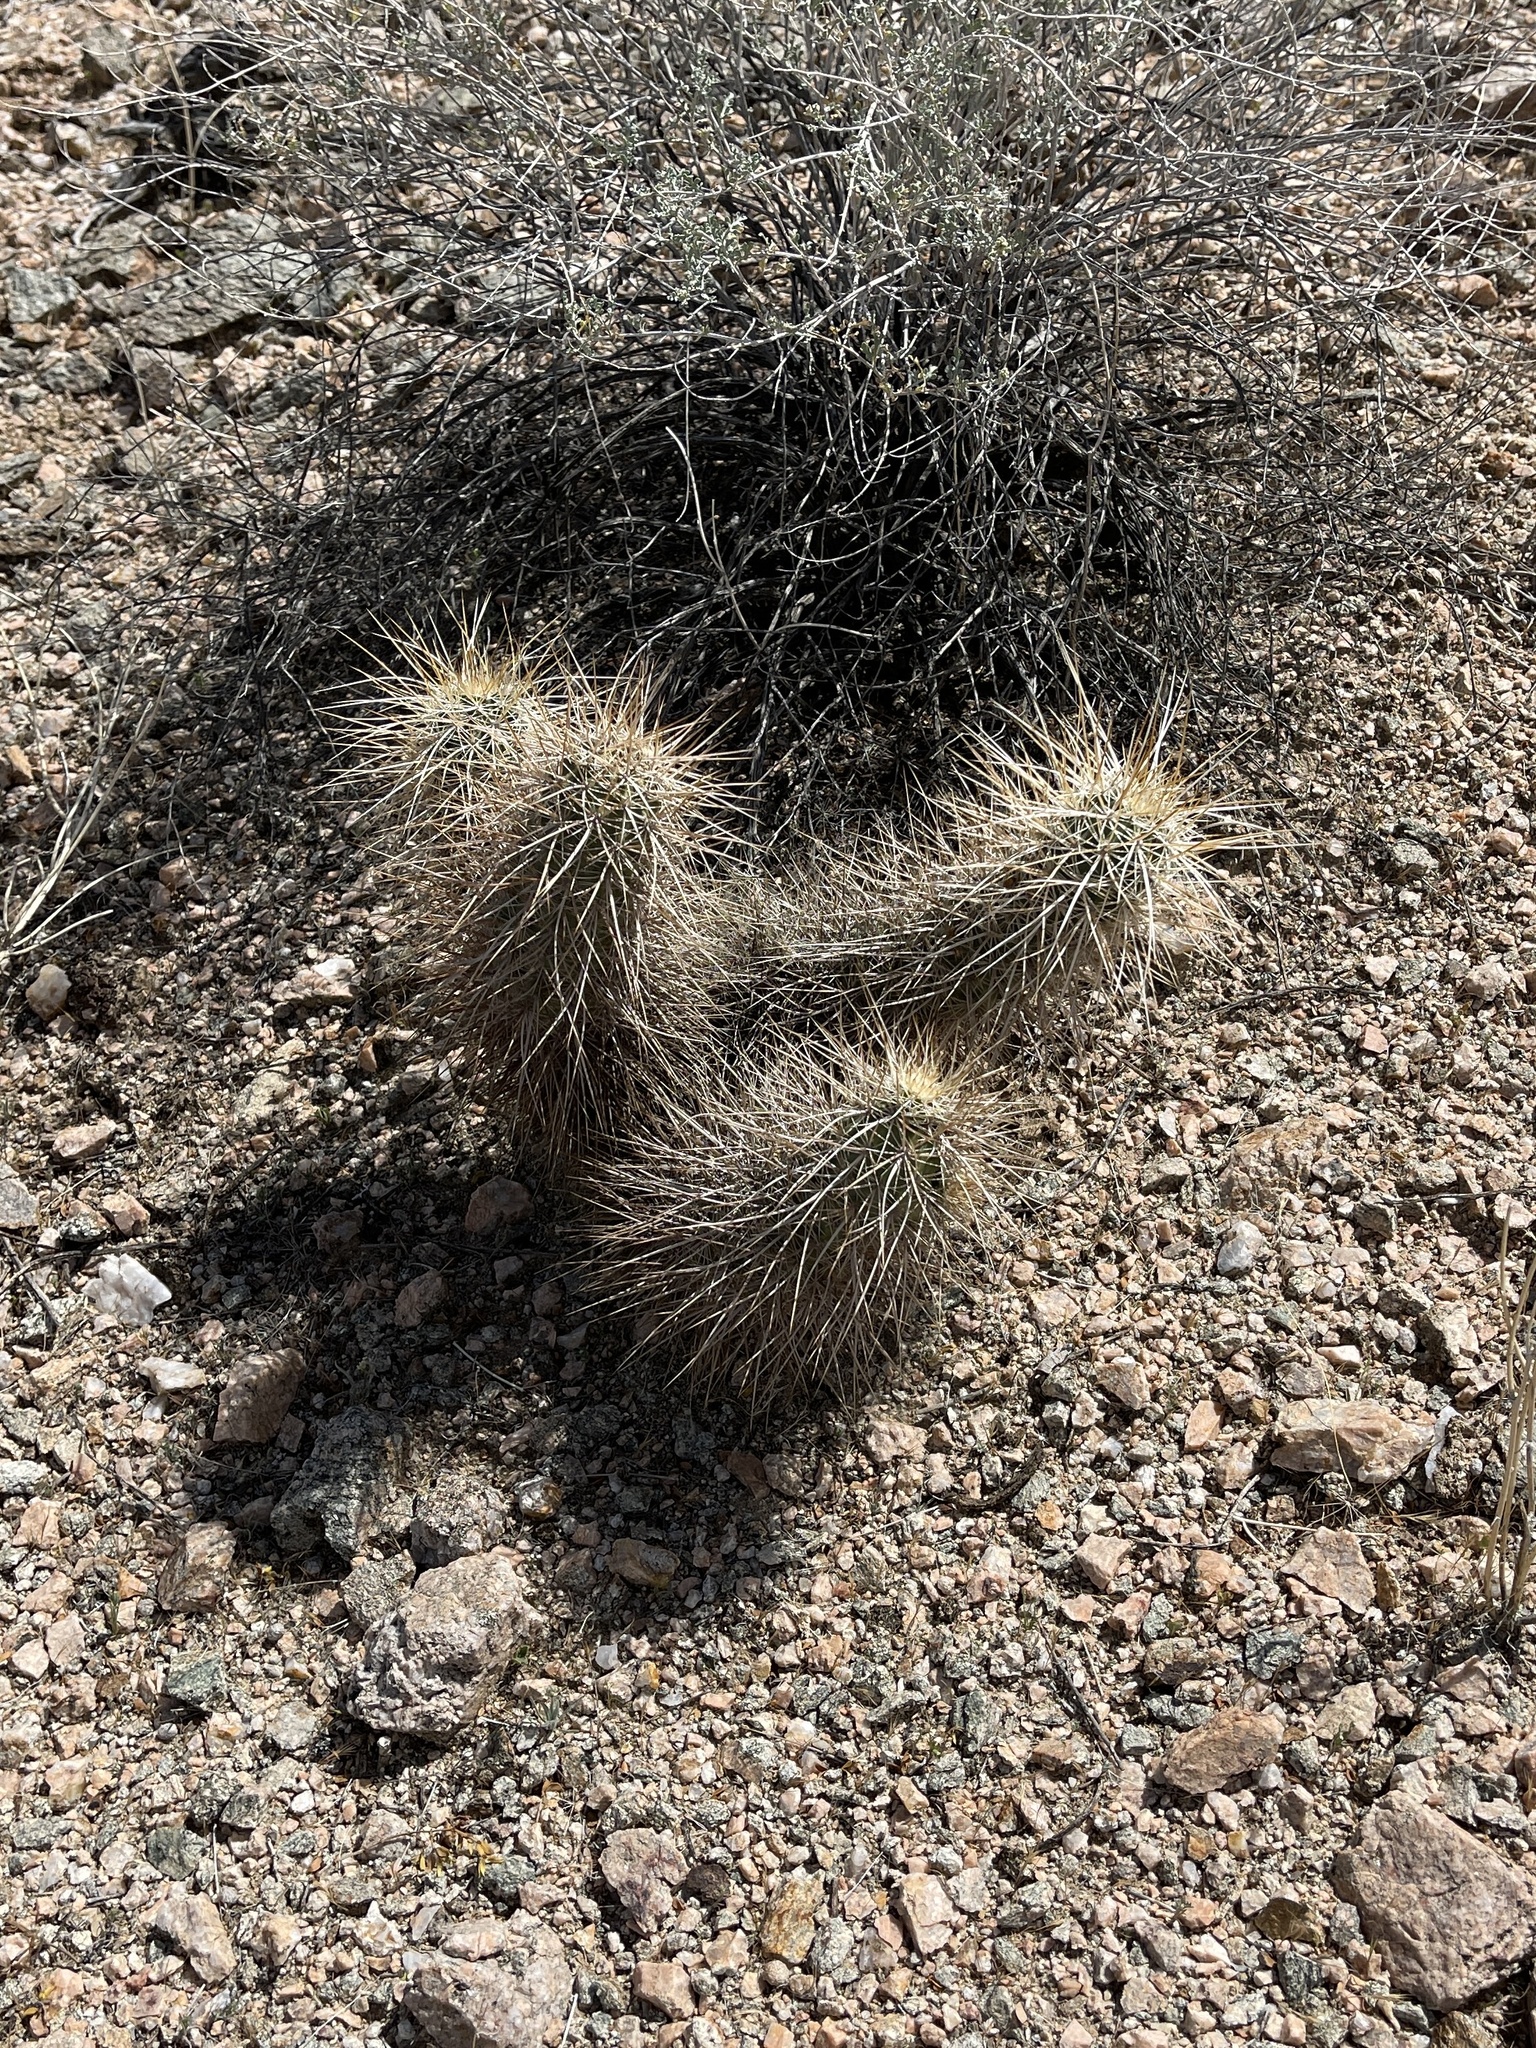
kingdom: Plantae
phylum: Tracheophyta
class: Magnoliopsida
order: Caryophyllales
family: Cactaceae
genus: Echinocereus
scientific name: Echinocereus engelmannii
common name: Engelmann's hedgehog cactus
